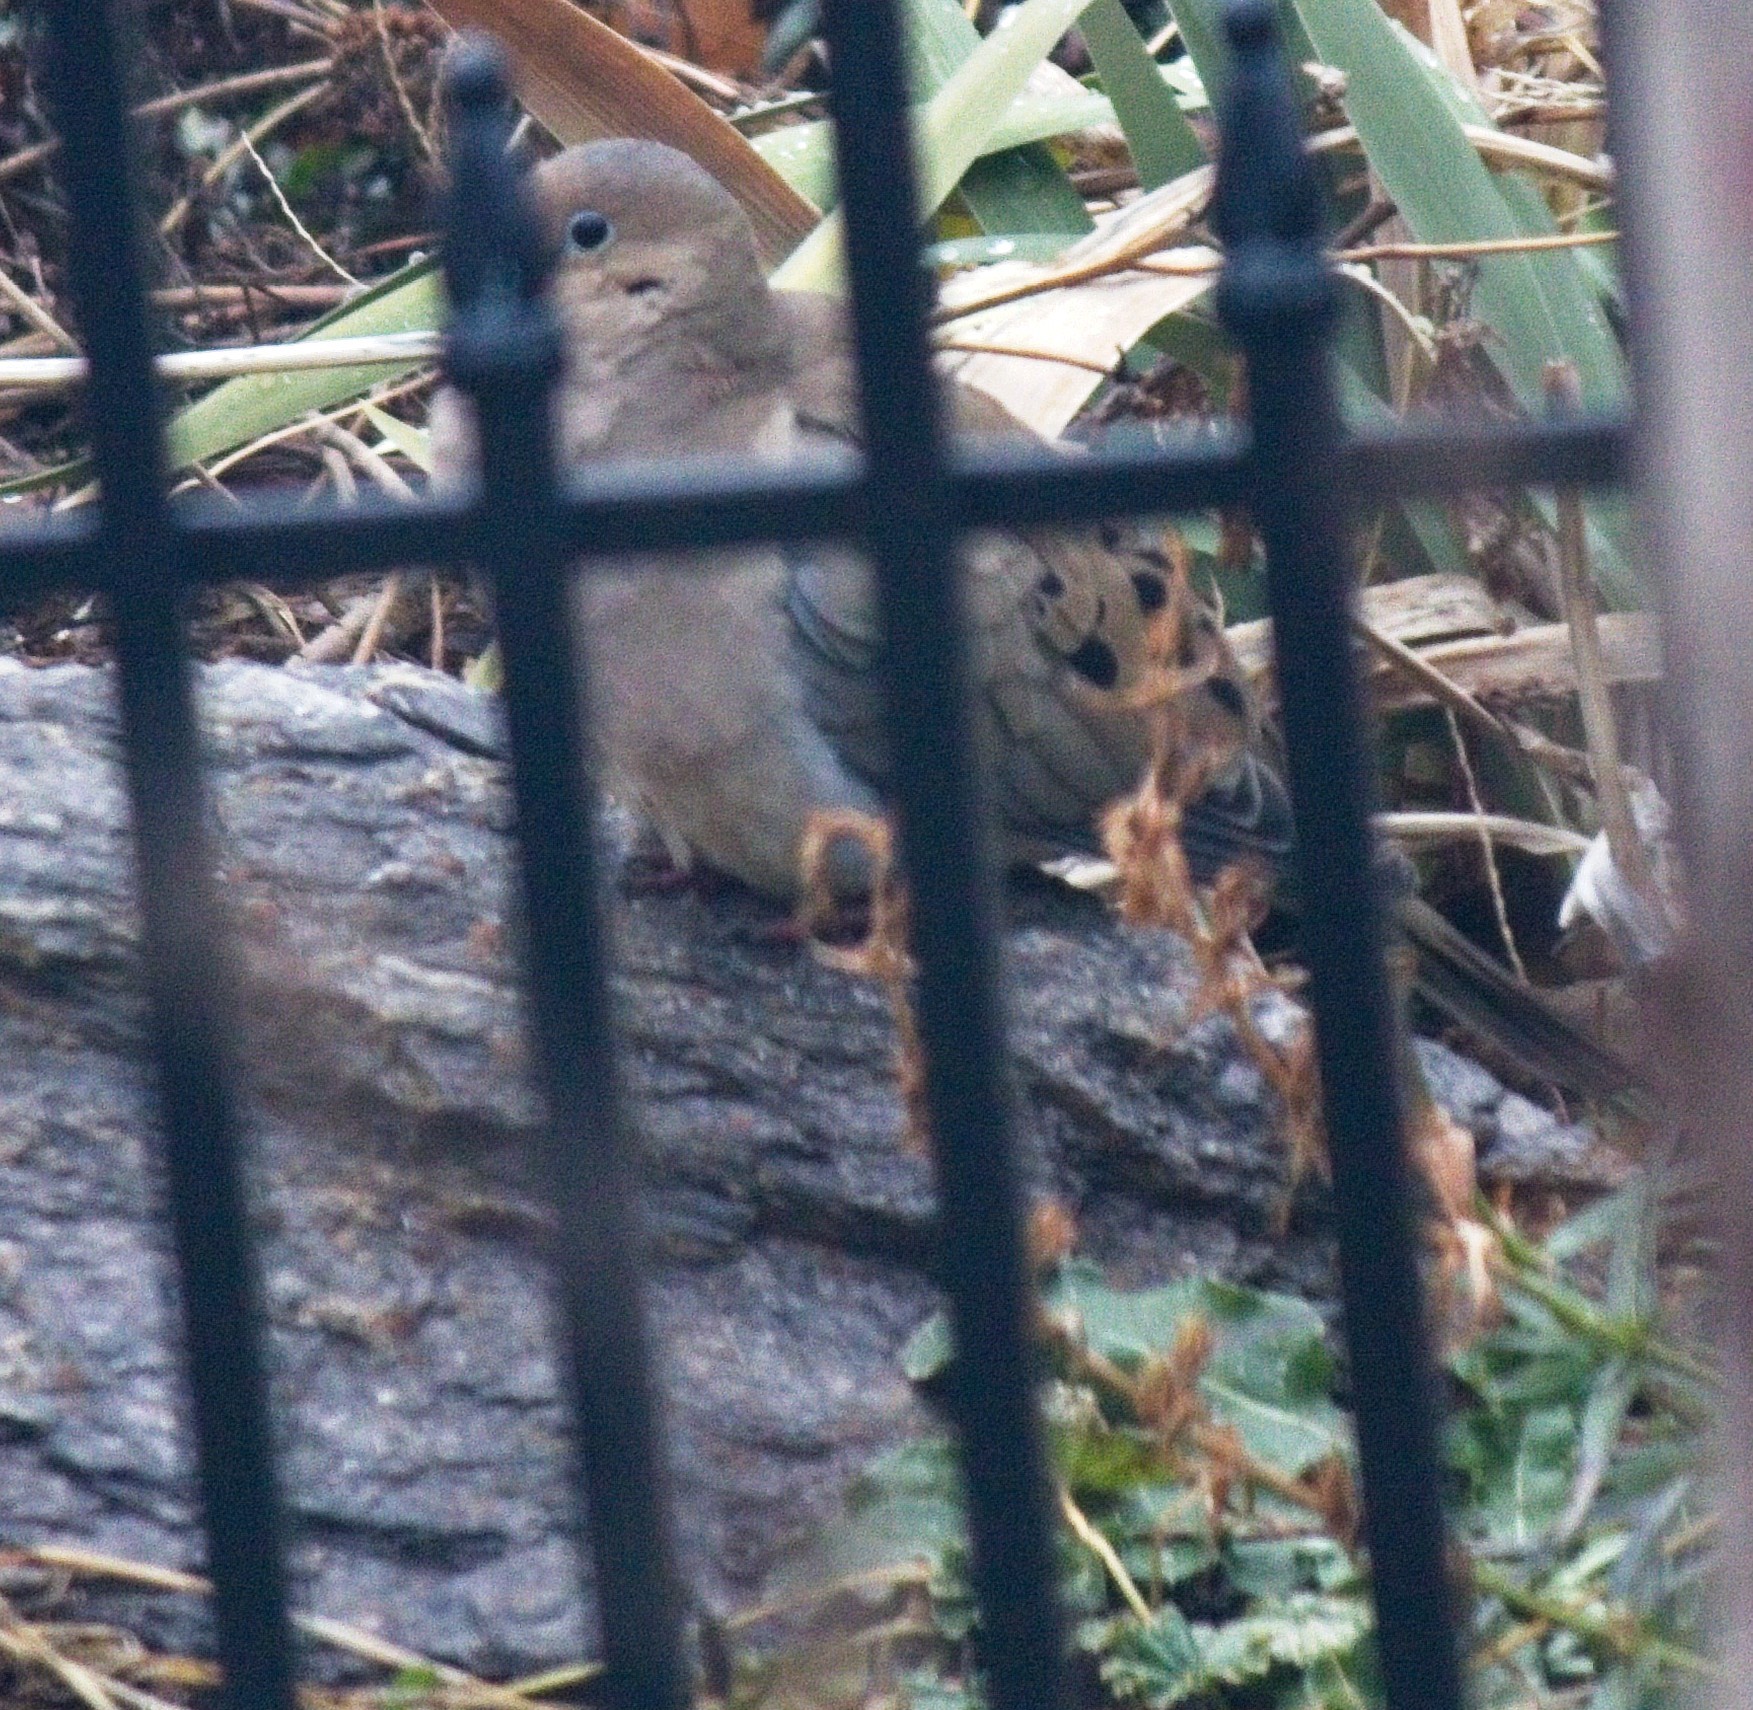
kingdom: Animalia
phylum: Chordata
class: Aves
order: Columbiformes
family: Columbidae
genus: Zenaida
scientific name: Zenaida macroura
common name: Mourning dove
